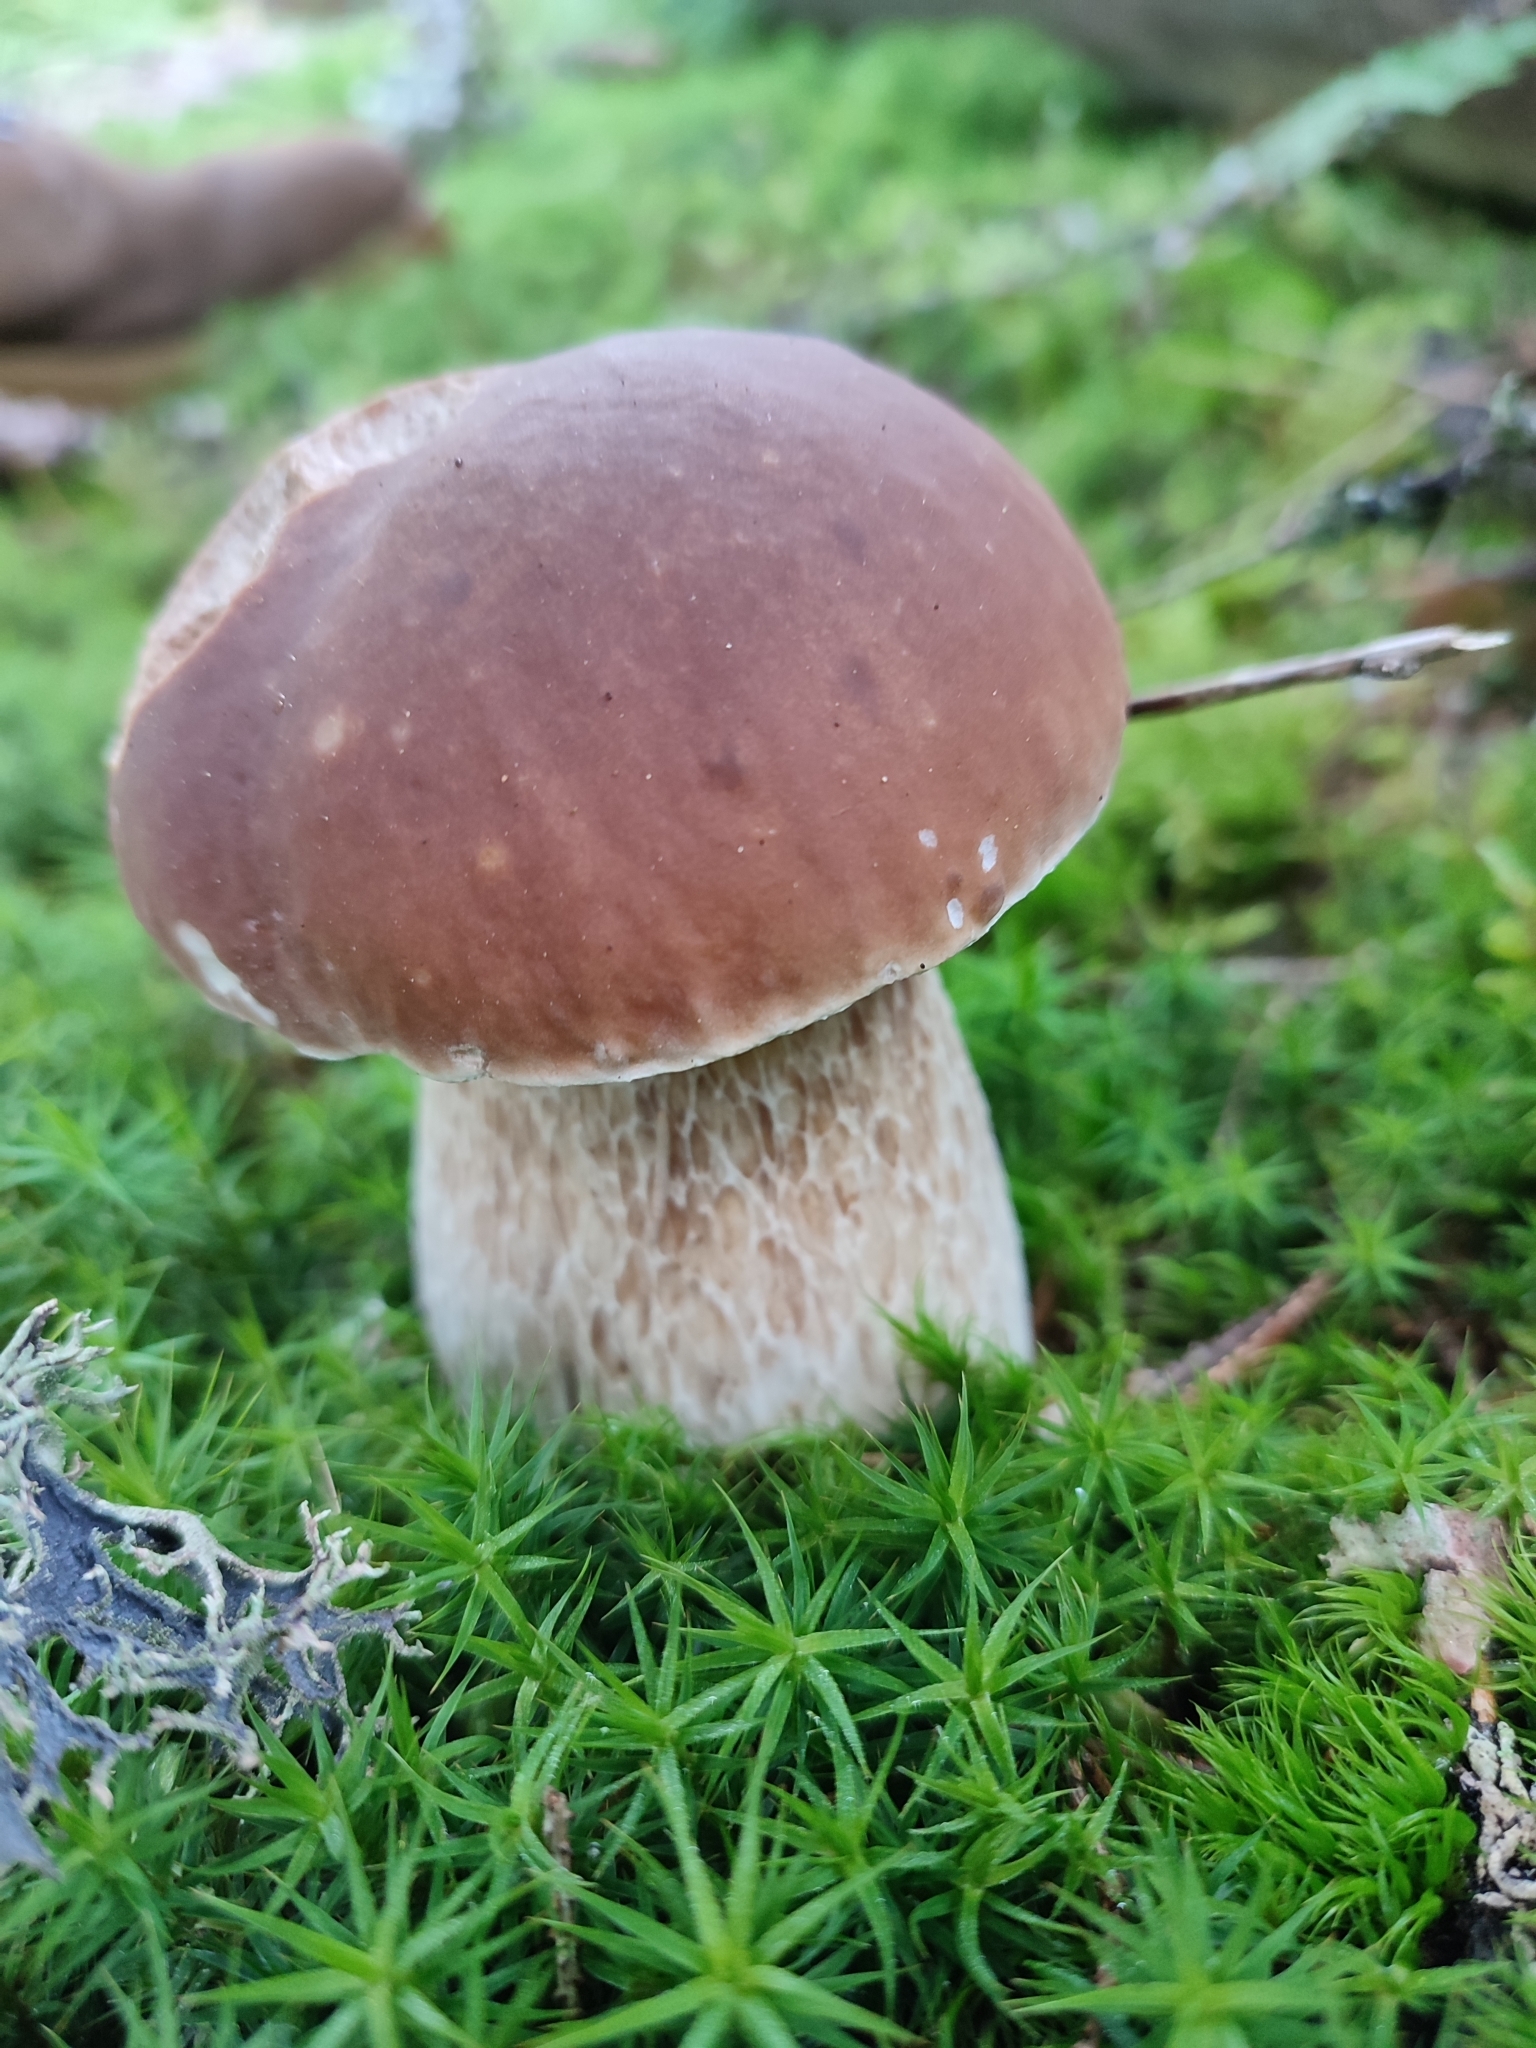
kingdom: Fungi
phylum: Basidiomycota
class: Agaricomycetes
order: Boletales
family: Boletaceae
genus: Boletus
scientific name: Boletus edulis
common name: Cep
